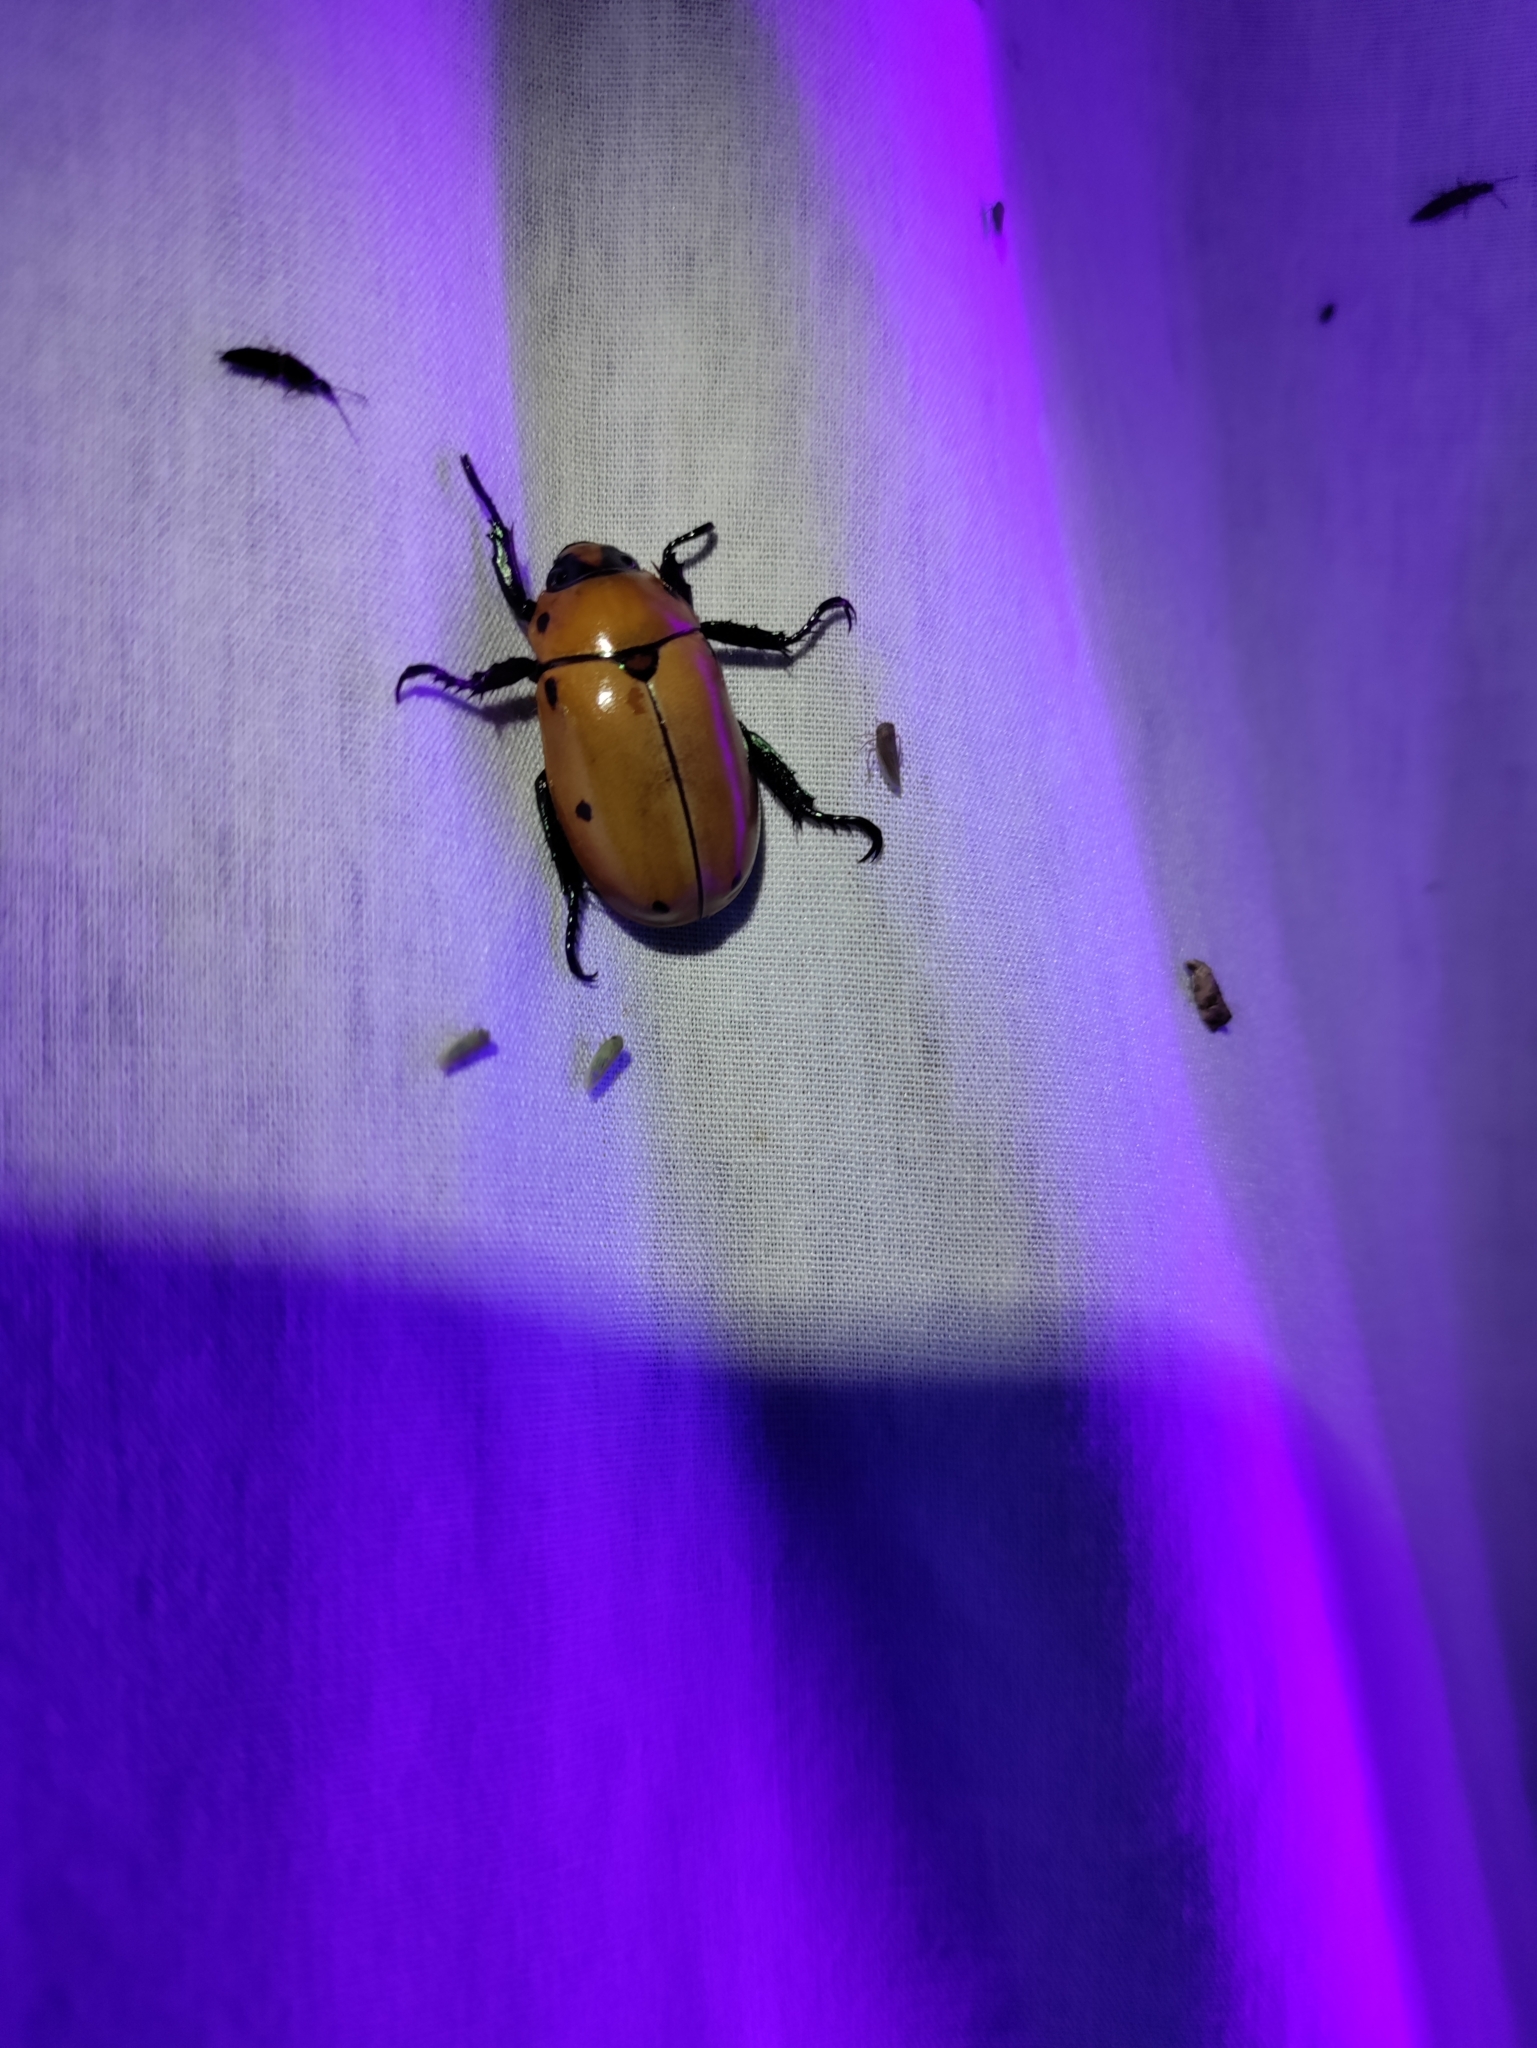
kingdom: Animalia
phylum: Arthropoda
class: Insecta
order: Coleoptera
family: Scarabaeidae
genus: Pelidnota
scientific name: Pelidnota punctata
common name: Grapevine beetle
